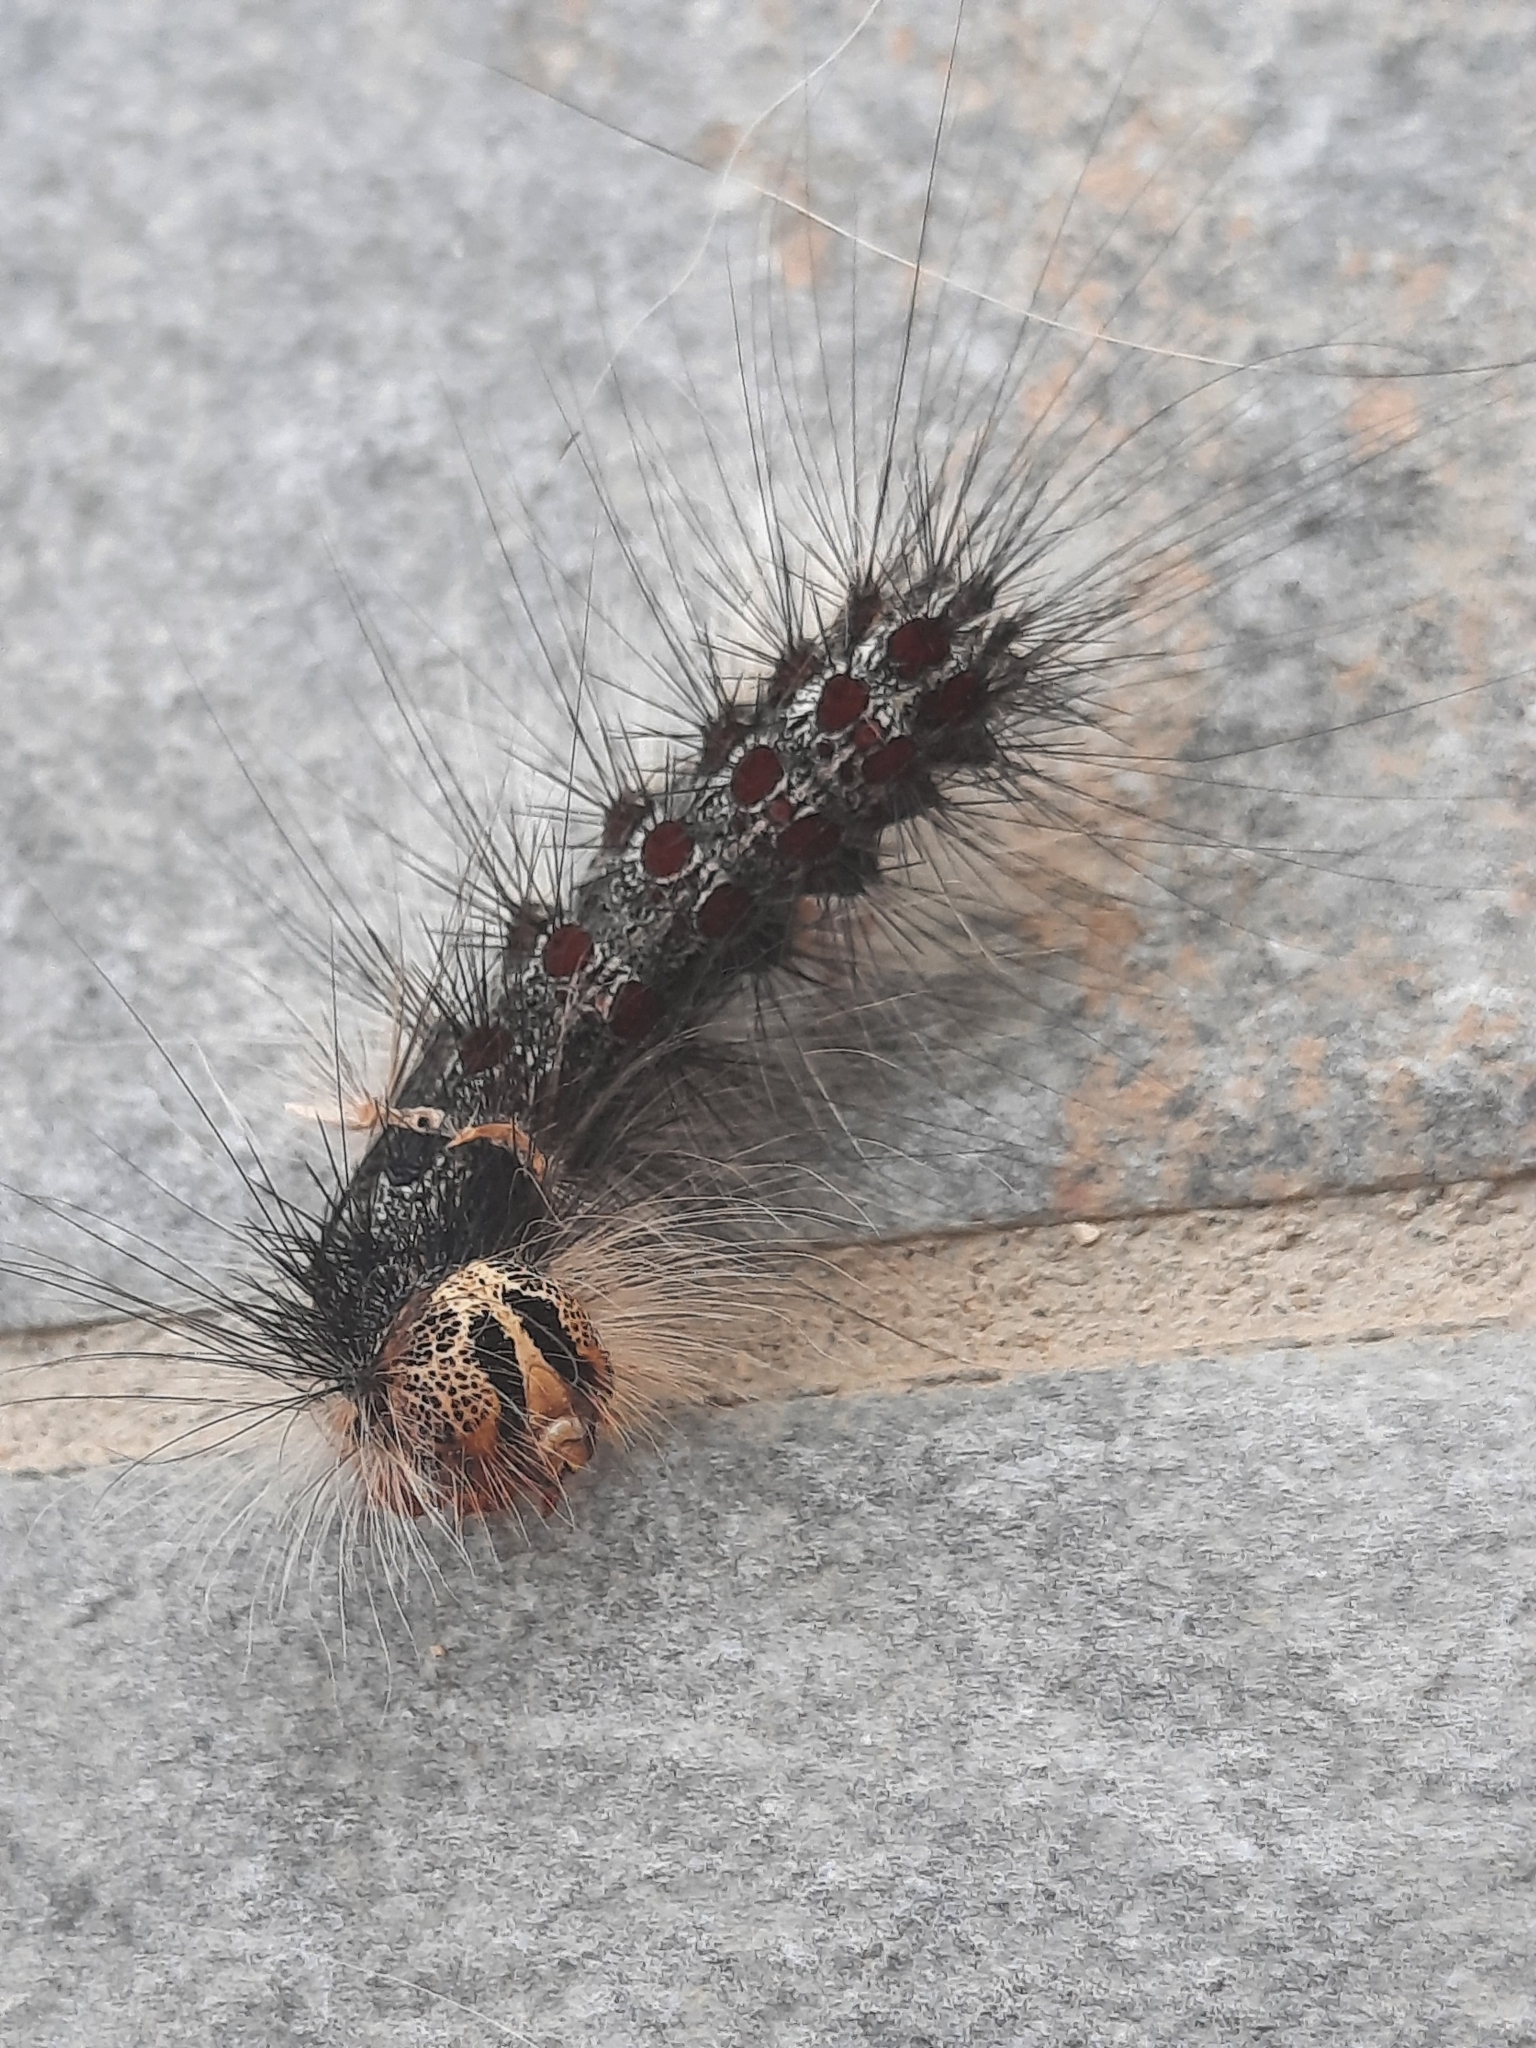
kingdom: Animalia
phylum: Arthropoda
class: Insecta
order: Lepidoptera
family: Erebidae
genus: Lymantria
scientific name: Lymantria dispar
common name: Gypsy moth
